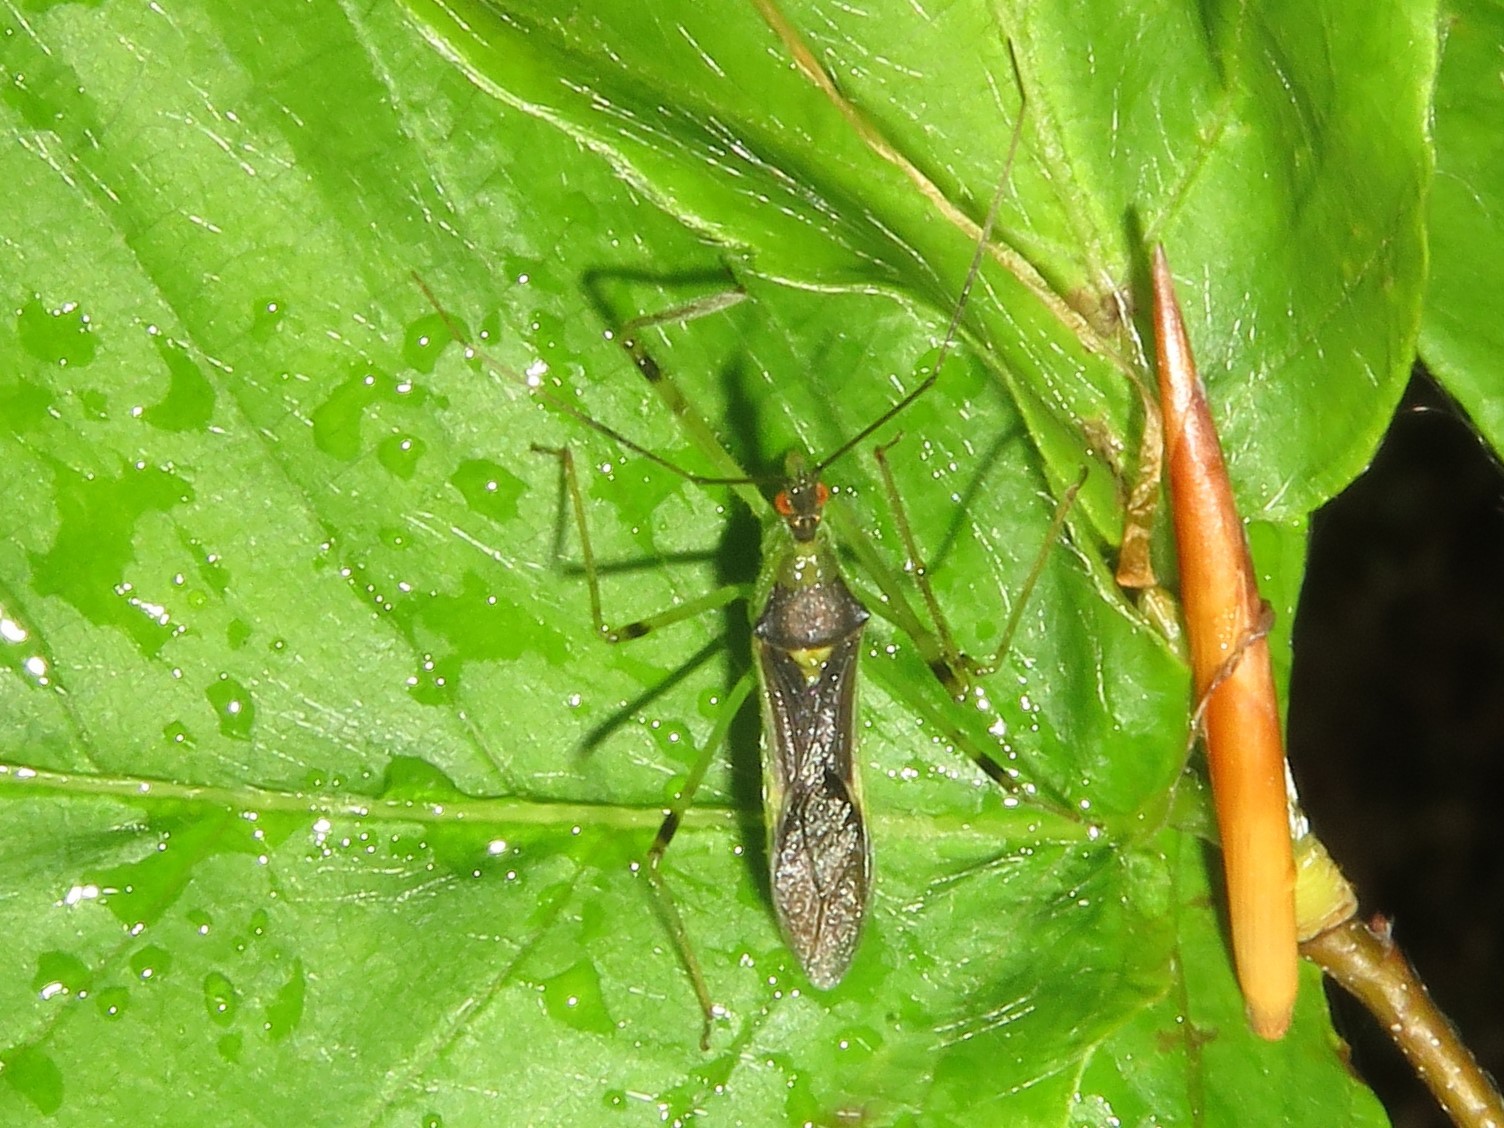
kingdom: Animalia
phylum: Arthropoda
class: Insecta
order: Hemiptera
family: Reduviidae
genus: Zelus
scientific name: Zelus luridus
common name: Pale green assassin bug
